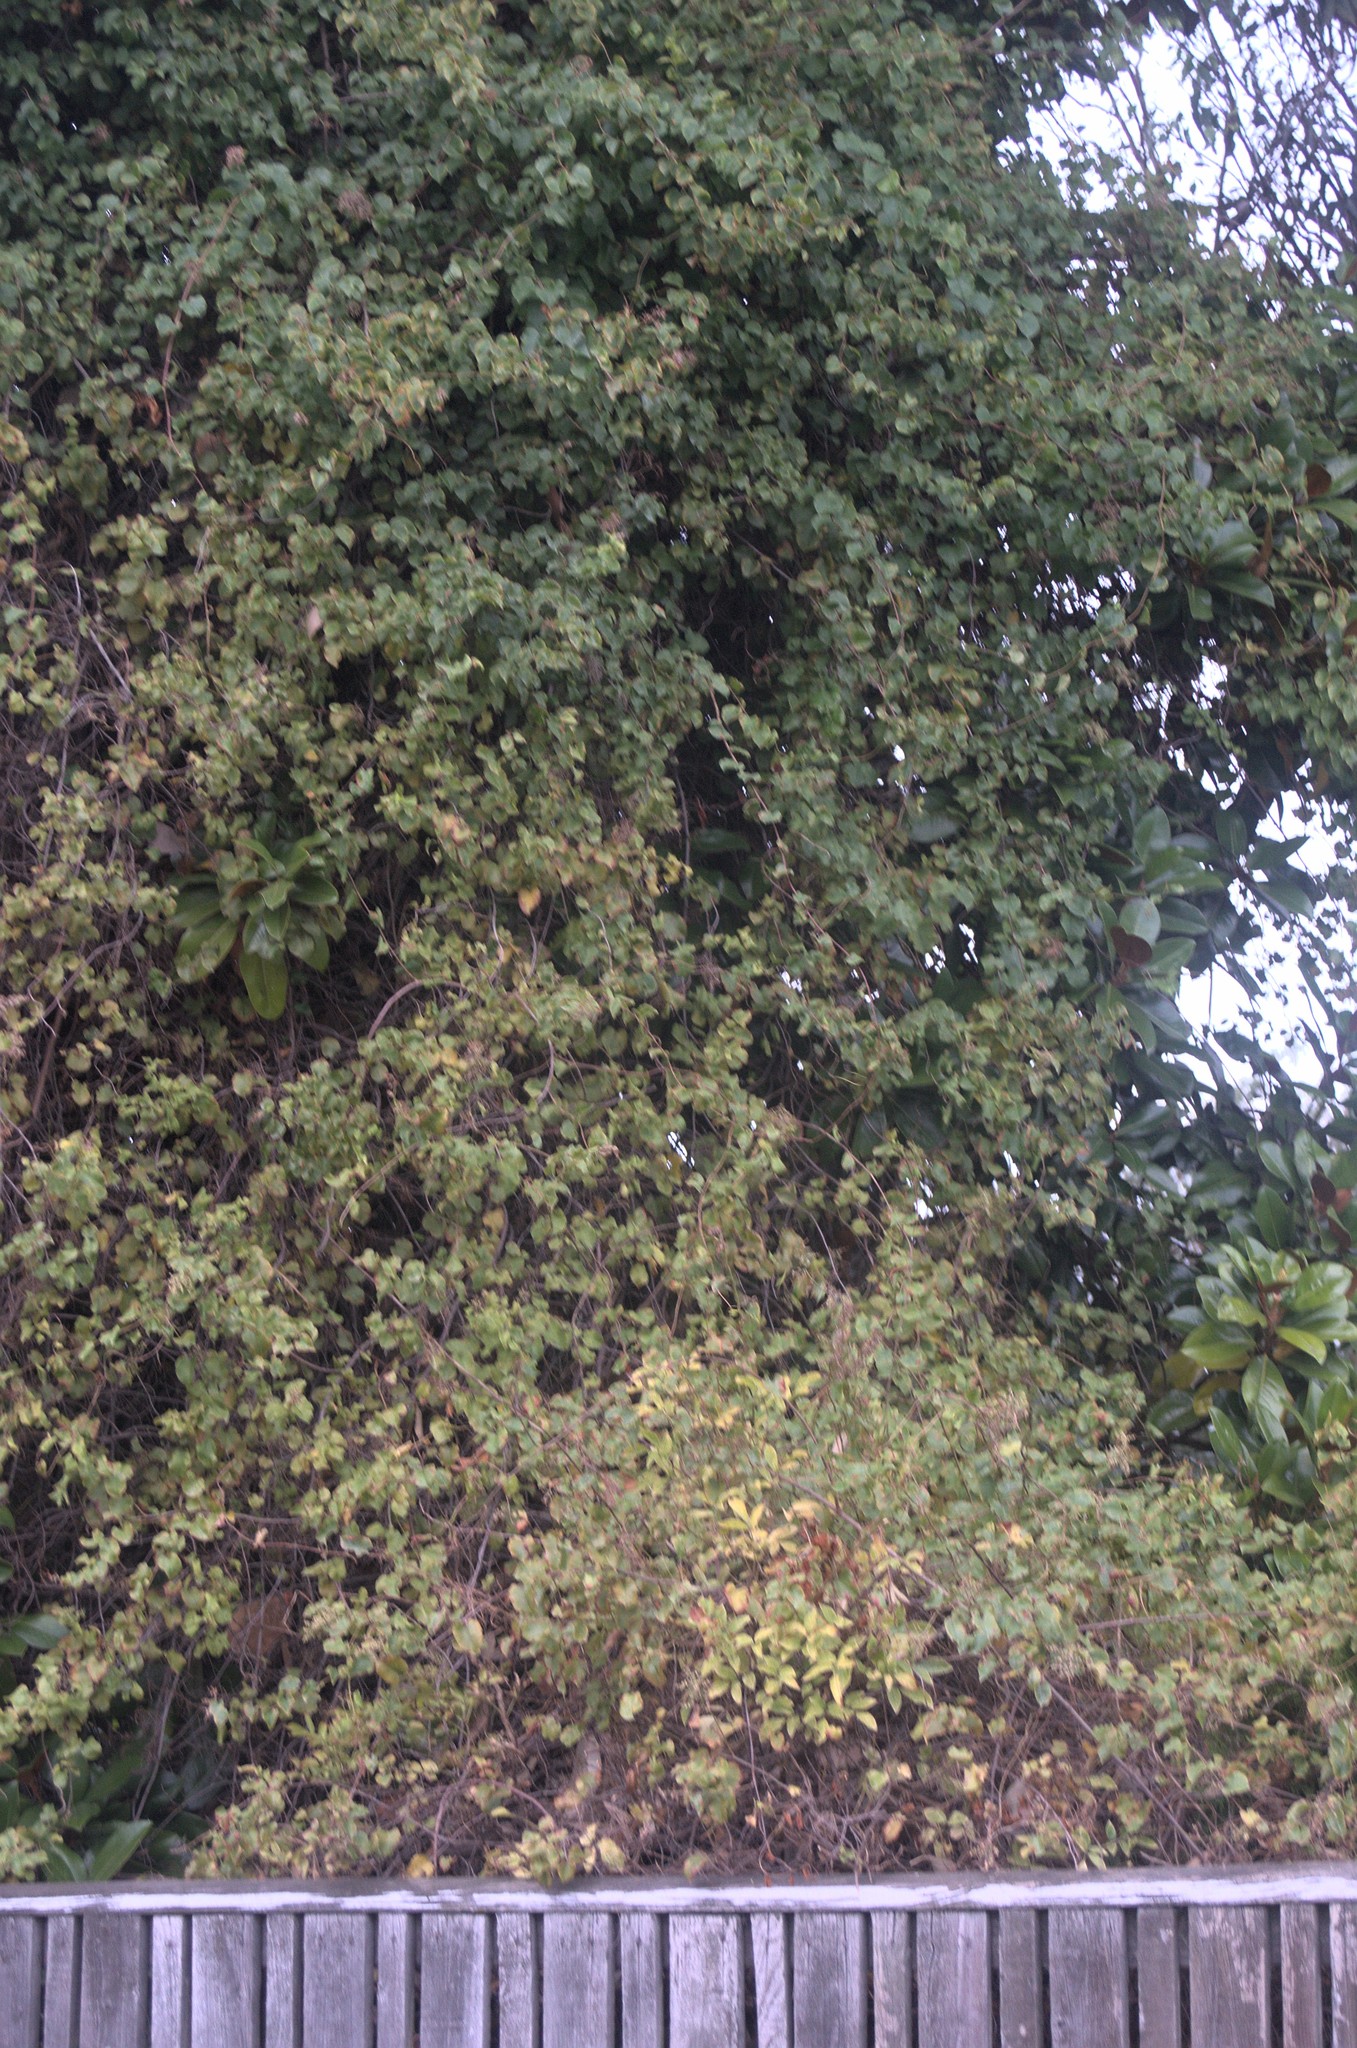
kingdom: Plantae
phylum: Tracheophyta
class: Magnoliopsida
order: Caryophyllales
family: Polygonaceae
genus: Muehlenbeckia
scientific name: Muehlenbeckia complexa
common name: Wireplant
